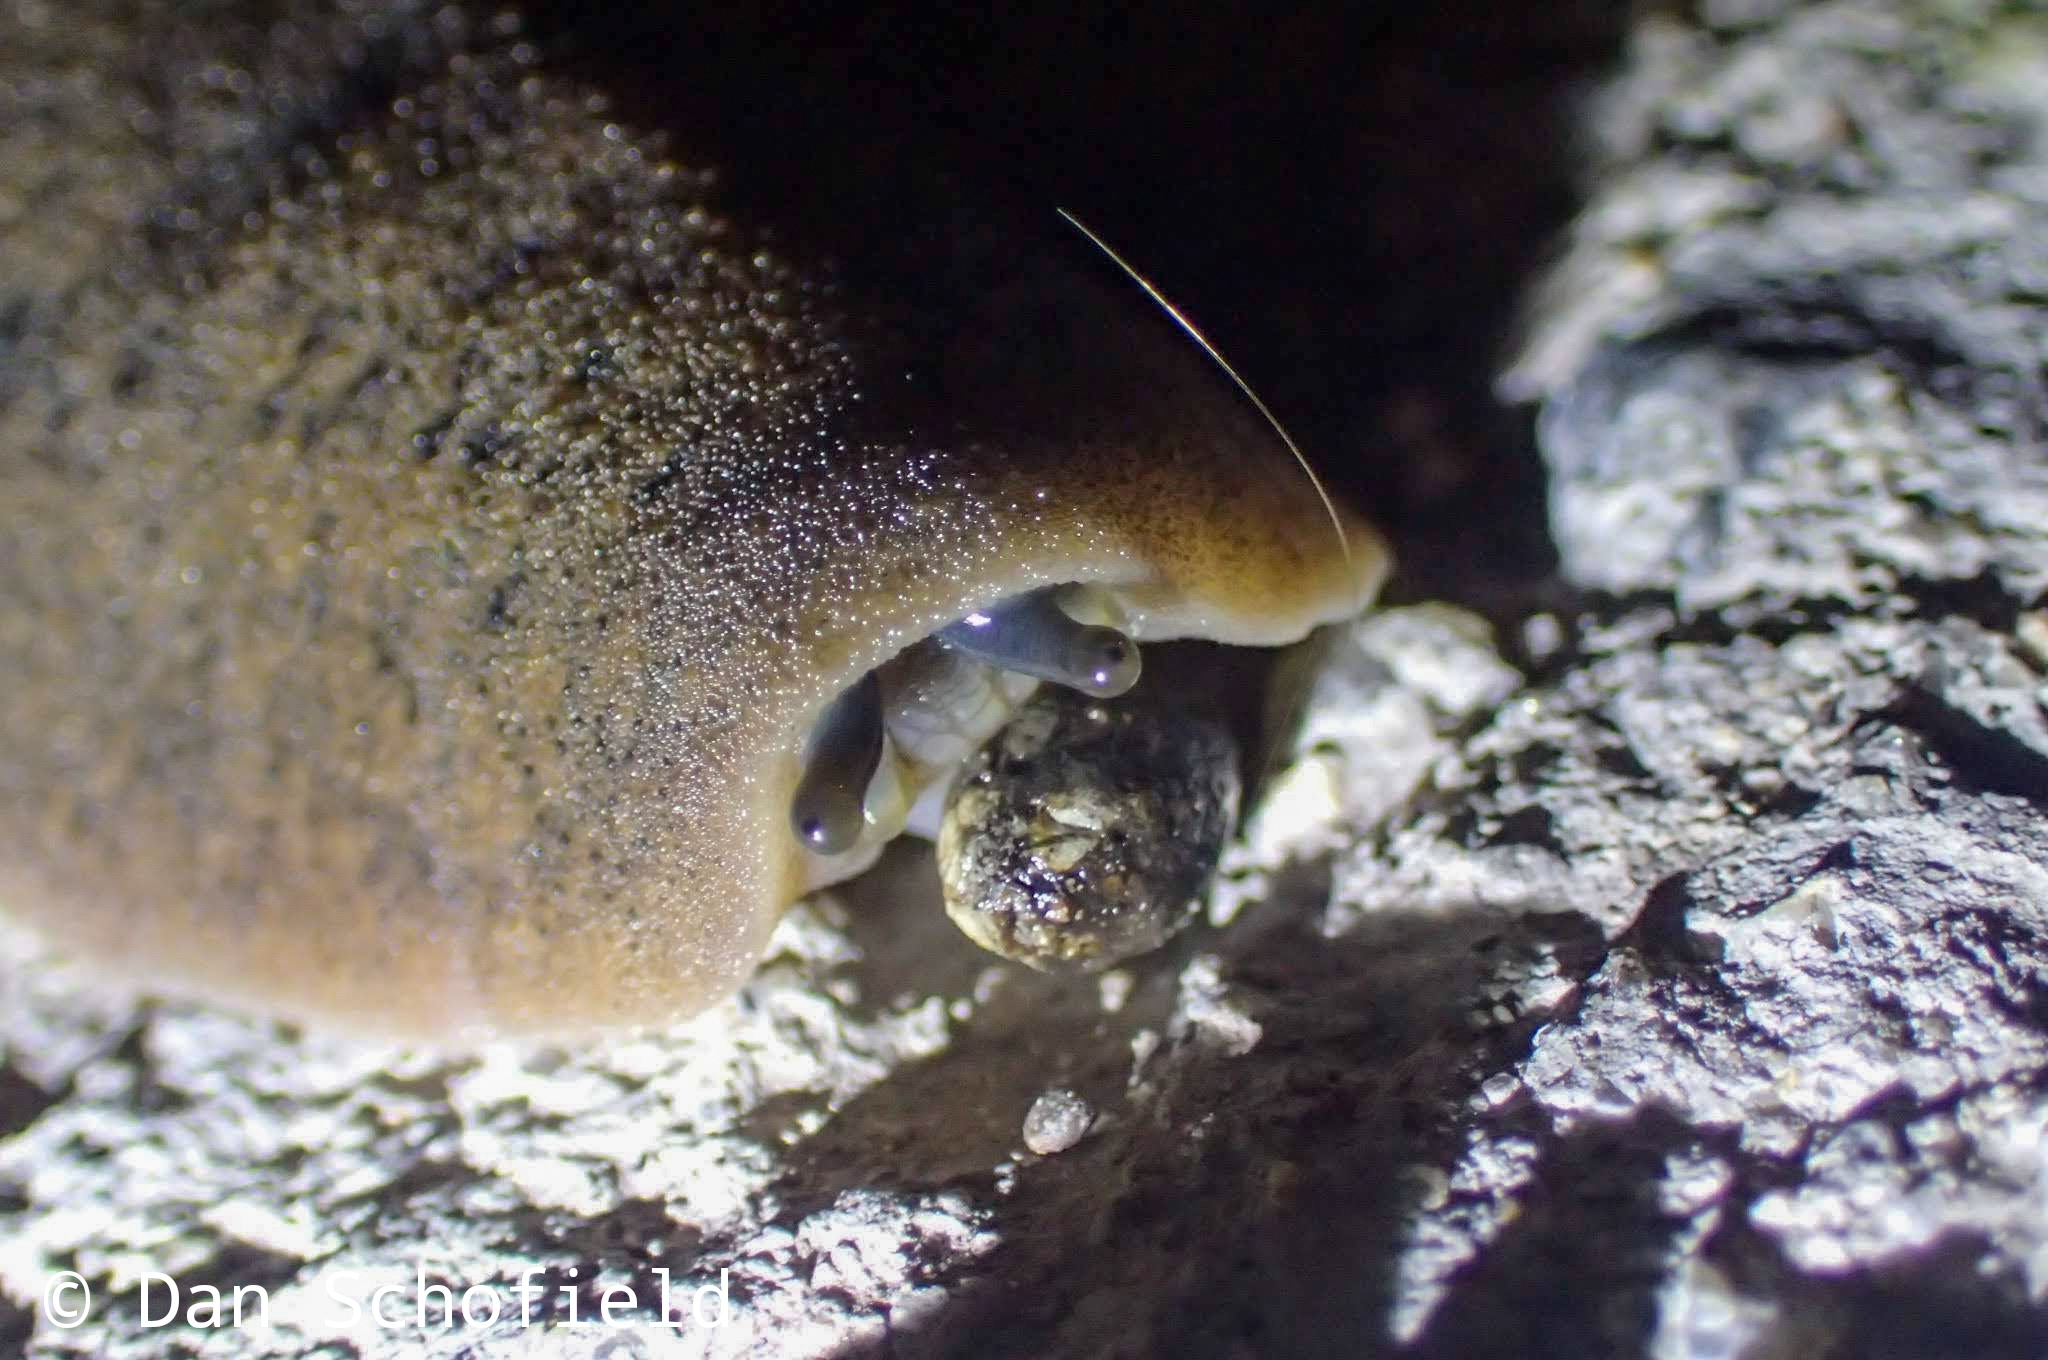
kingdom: Animalia
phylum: Mollusca
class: Gastropoda
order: Systellommatophora
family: Veronicellidae
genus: Valiguna
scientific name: Valiguna siamensis
